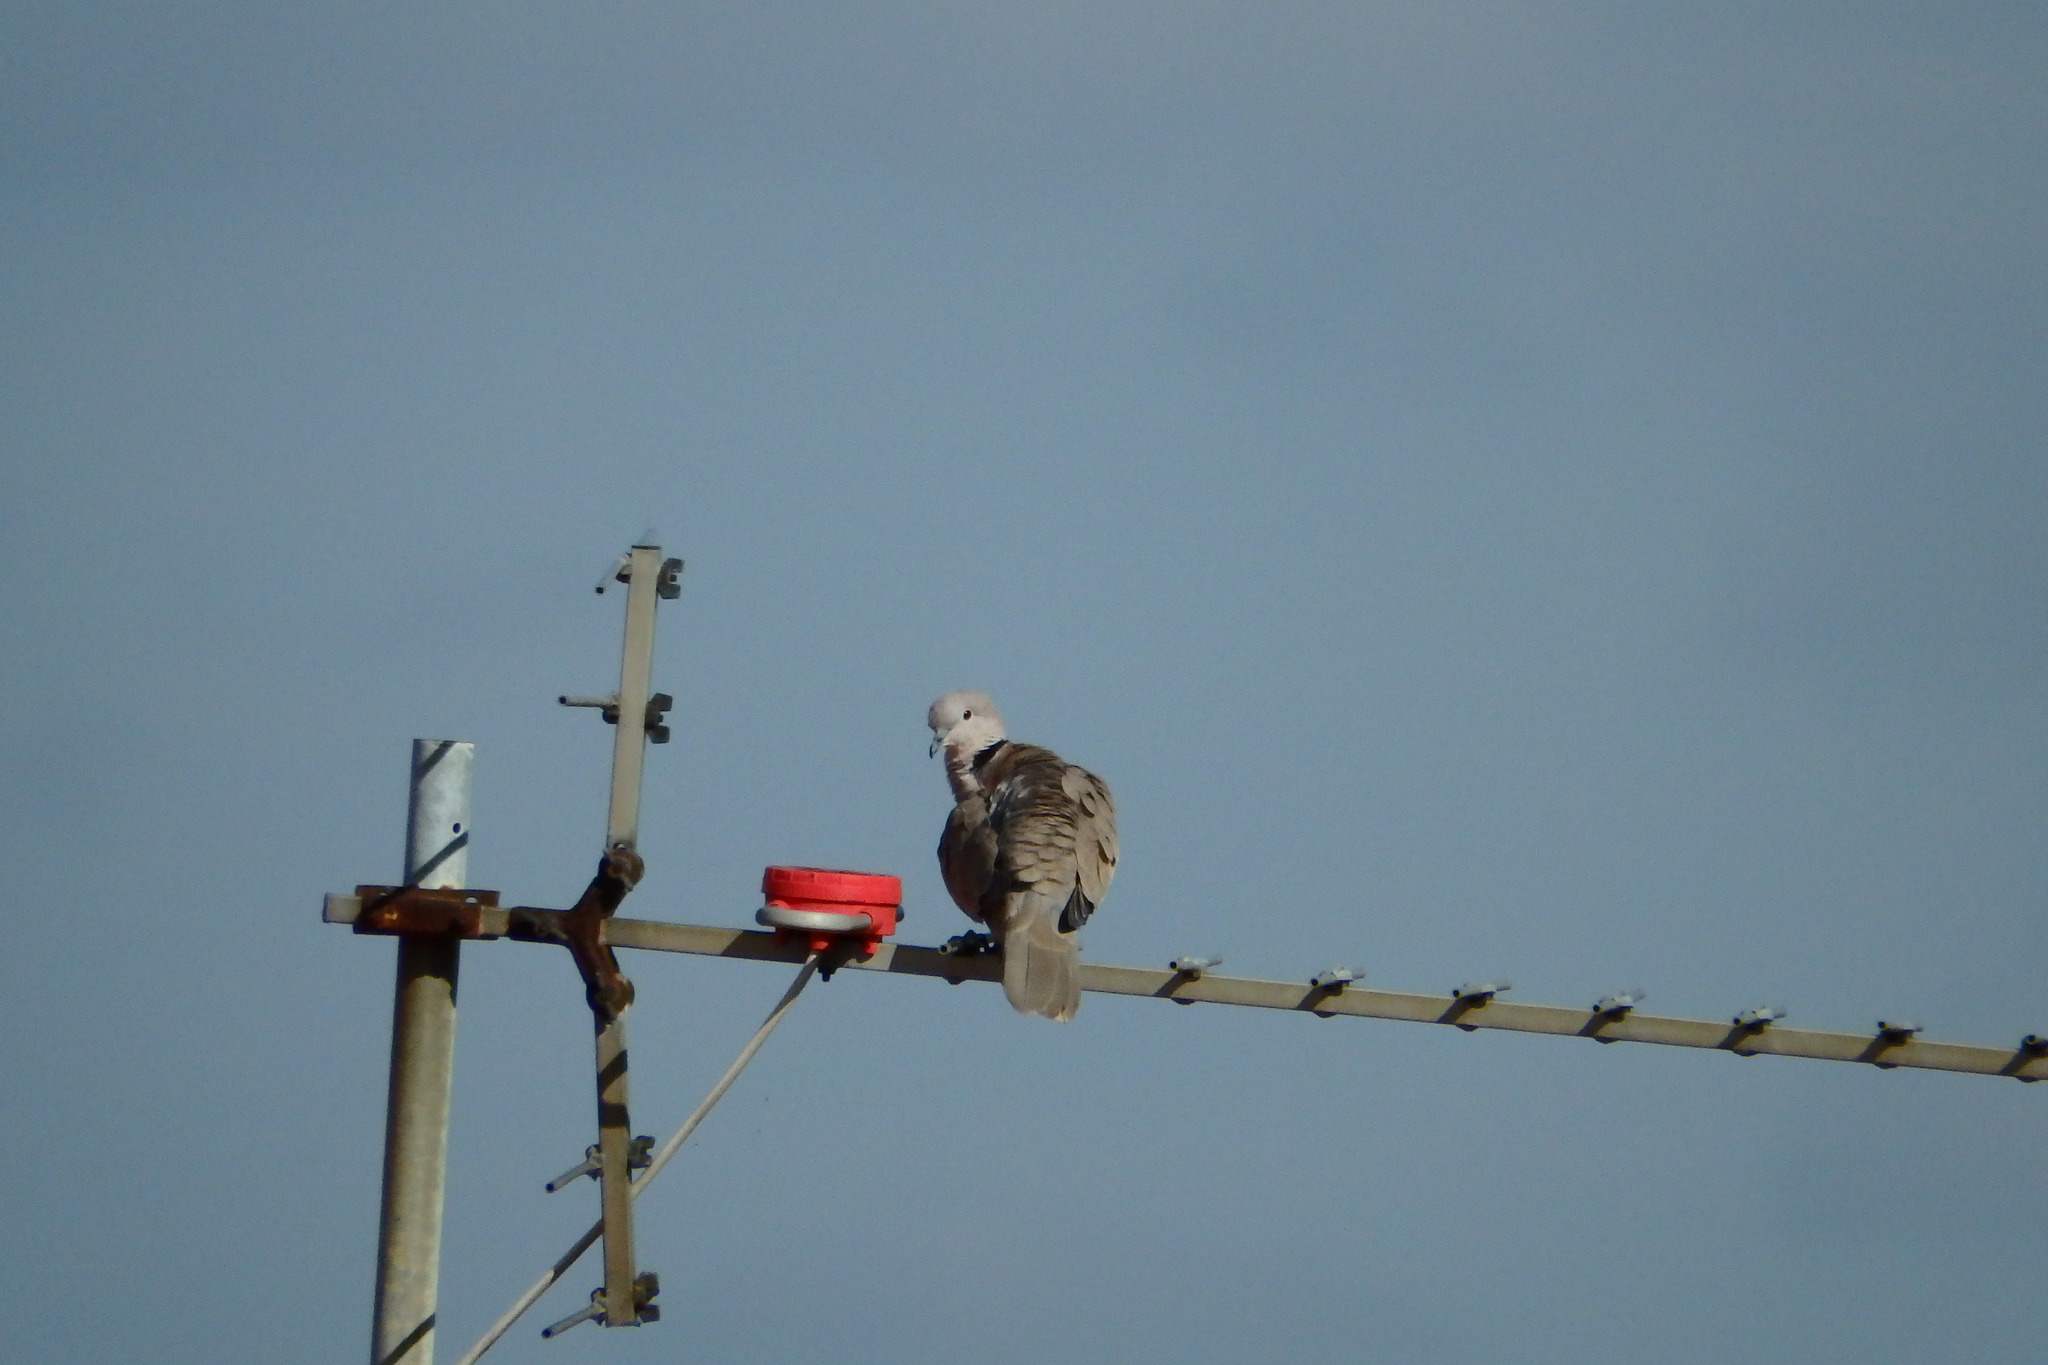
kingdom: Animalia
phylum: Chordata
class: Aves
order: Columbiformes
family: Columbidae
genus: Streptopelia
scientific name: Streptopelia decaocto
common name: Eurasian collared dove
